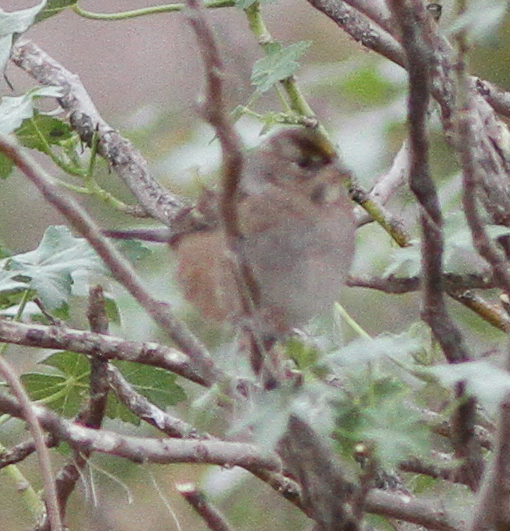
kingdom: Animalia
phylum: Chordata
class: Aves
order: Passeriformes
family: Passerellidae
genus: Zonotrichia
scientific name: Zonotrichia atricapilla
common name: Golden-crowned sparrow
